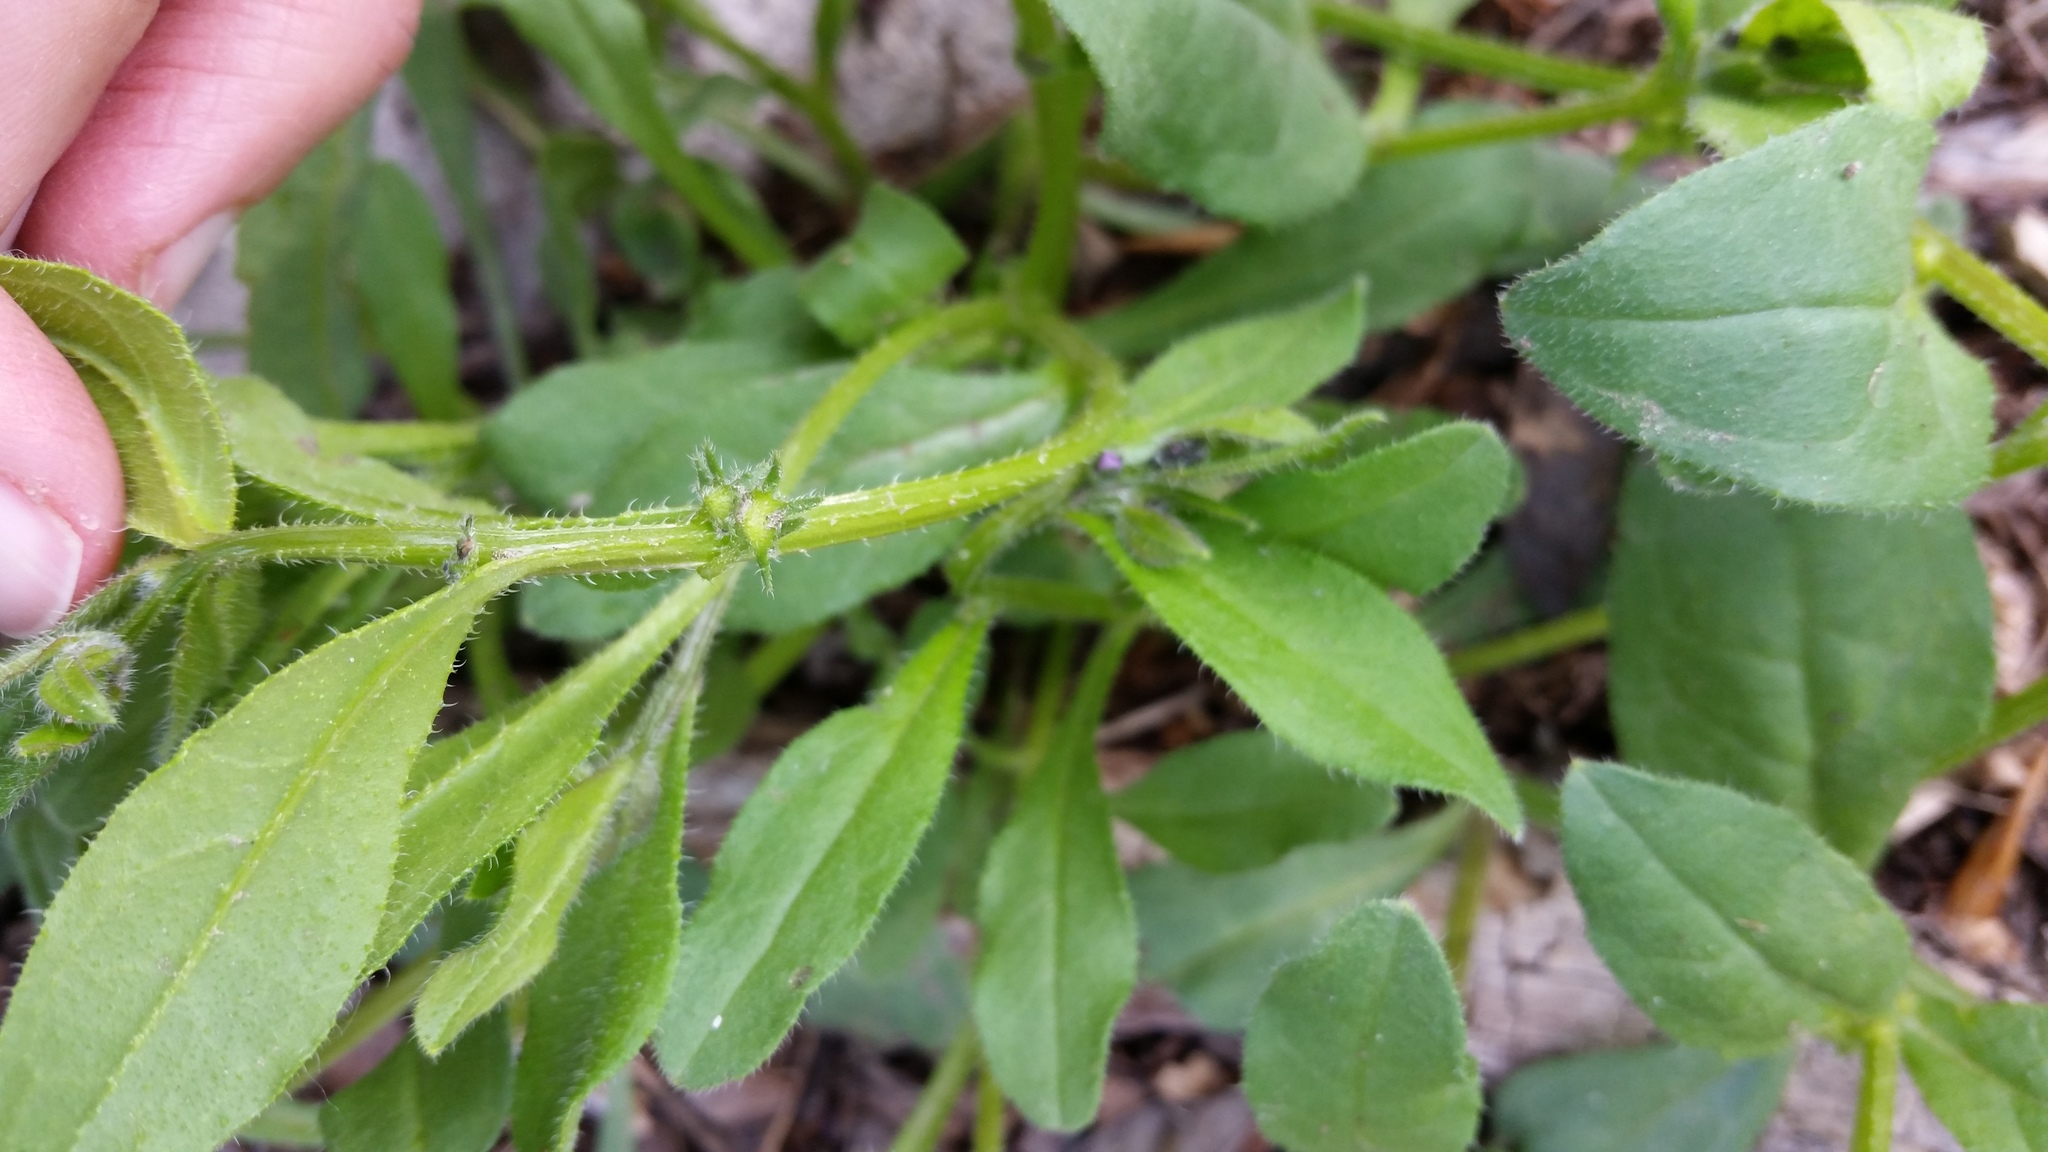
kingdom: Plantae
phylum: Tracheophyta
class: Magnoliopsida
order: Boraginales
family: Boraginaceae
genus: Asperugo
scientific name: Asperugo procumbens
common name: Madwort
